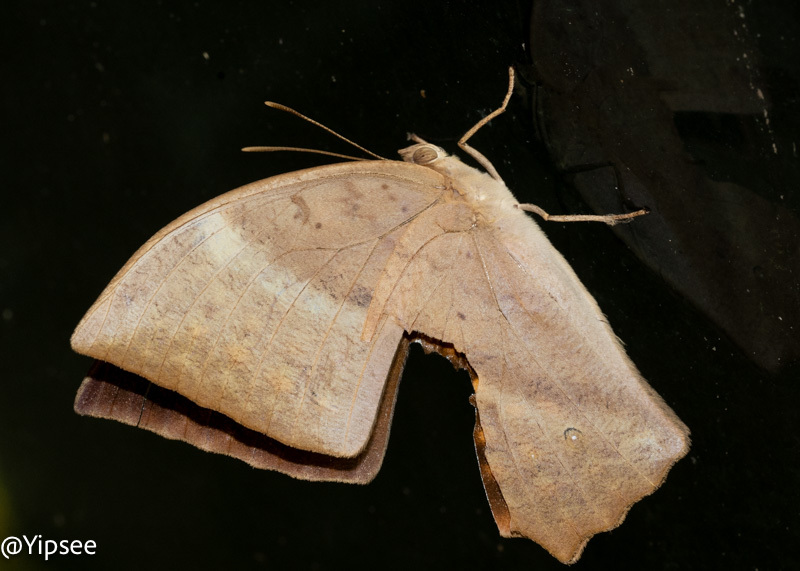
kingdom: Animalia
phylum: Arthropoda
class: Insecta
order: Lepidoptera
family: Nymphalidae
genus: Discophora
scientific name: Discophora sondaica
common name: Common duffer
